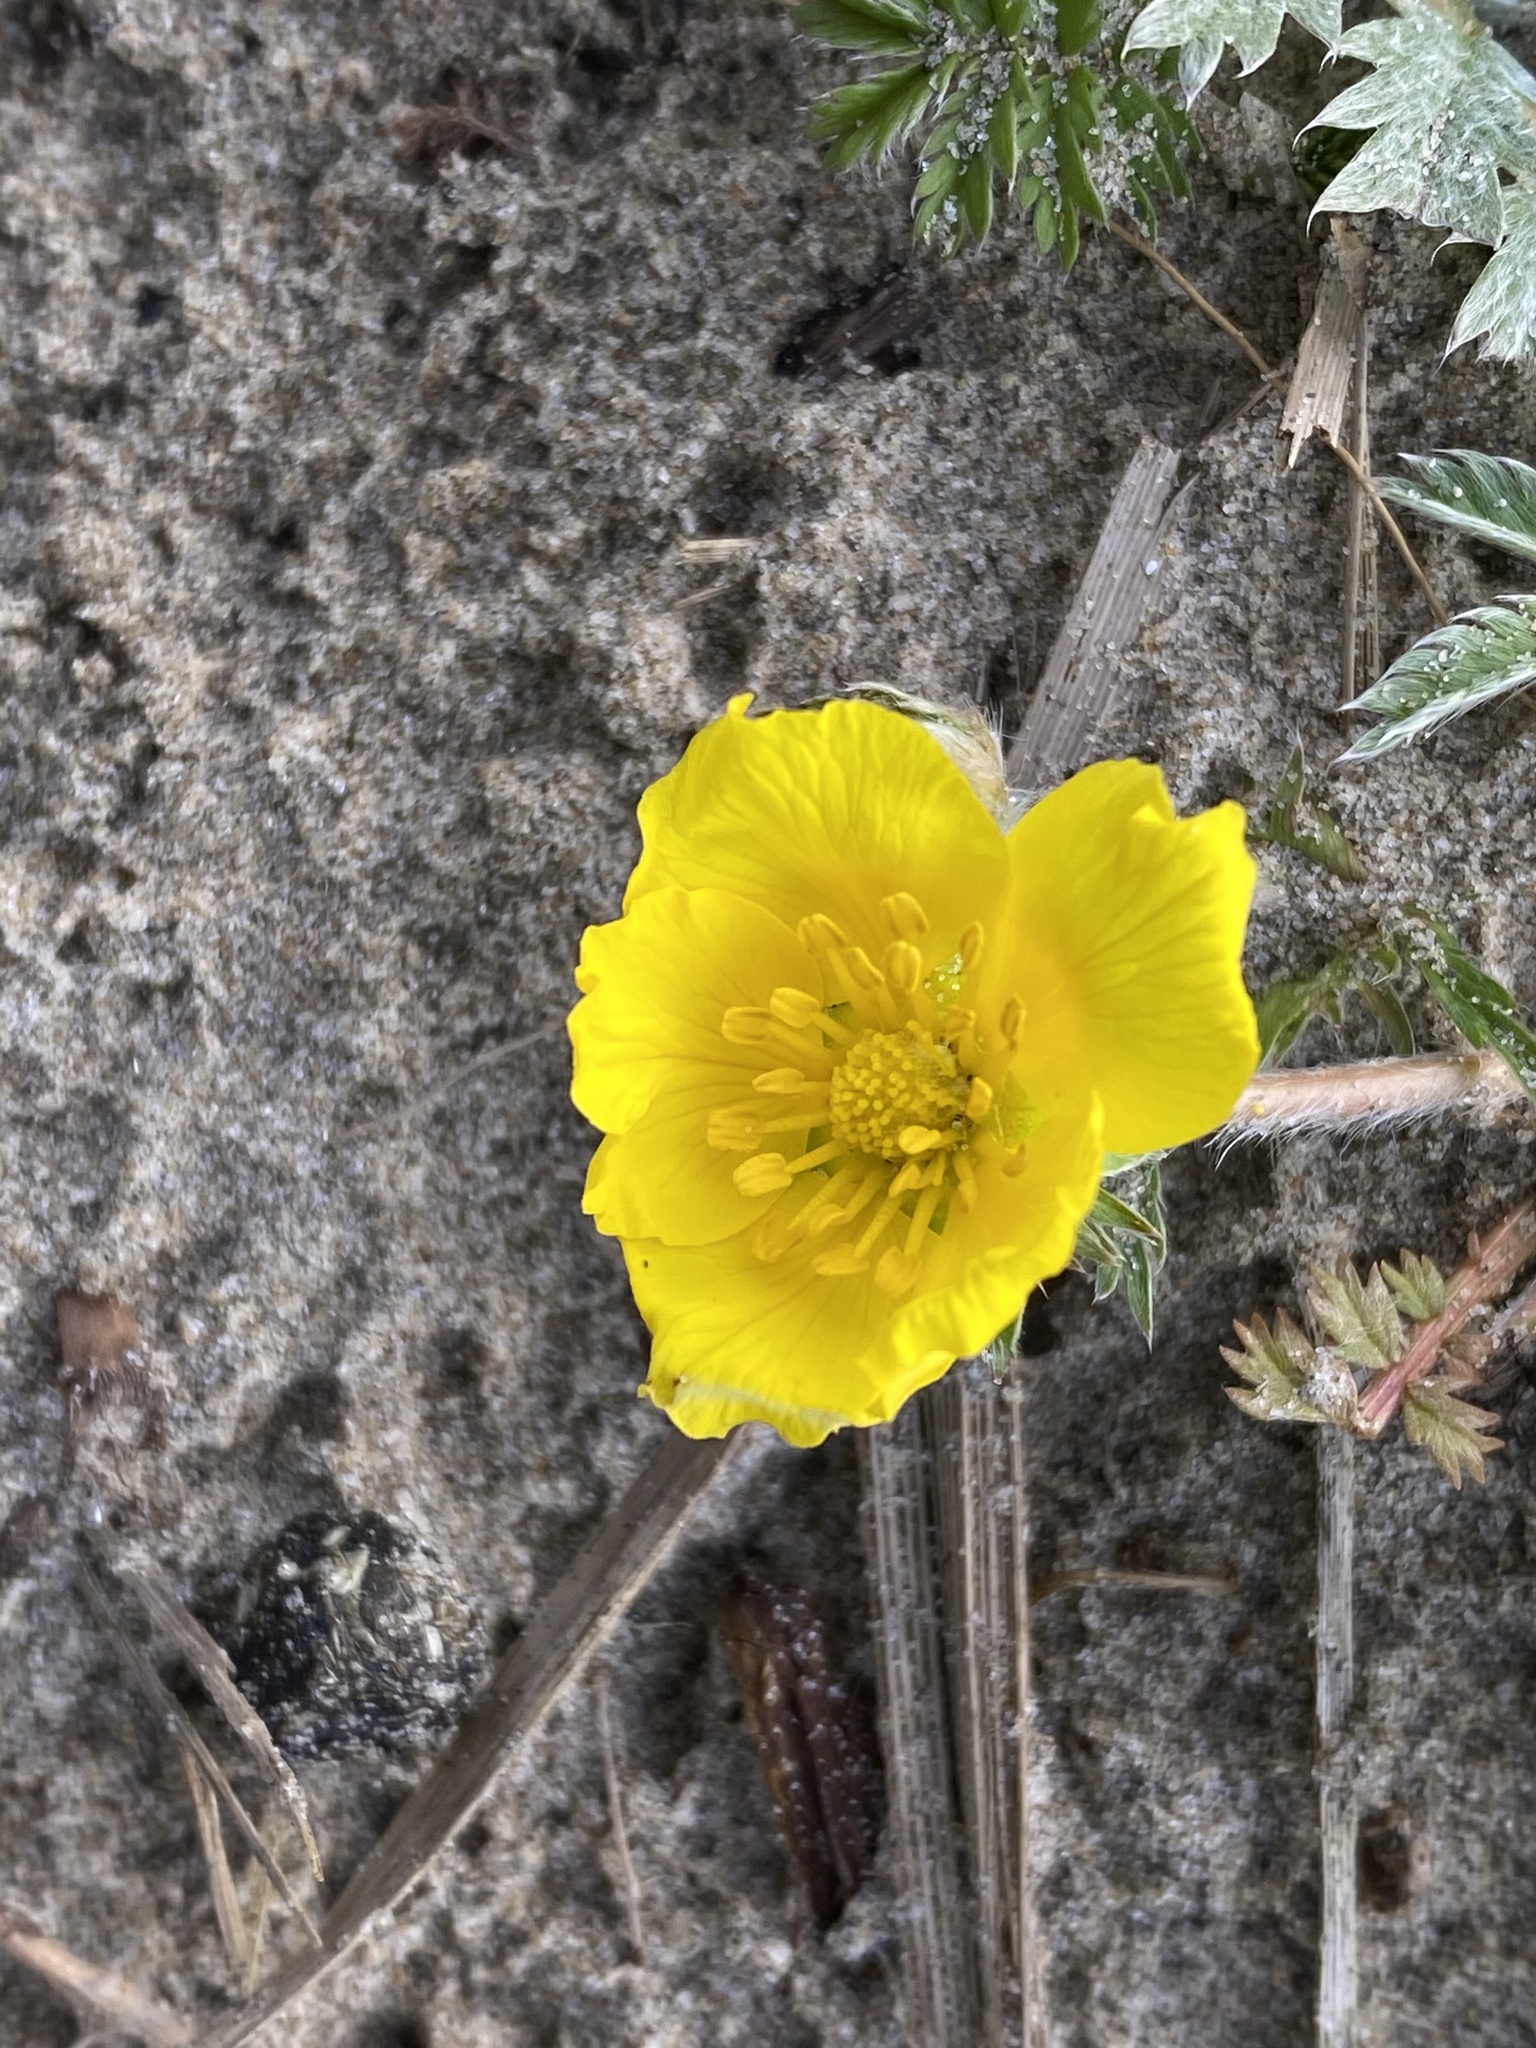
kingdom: Plantae
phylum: Tracheophyta
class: Magnoliopsida
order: Rosales
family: Rosaceae
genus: Argentina
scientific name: Argentina anserina
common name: Common silverweed
